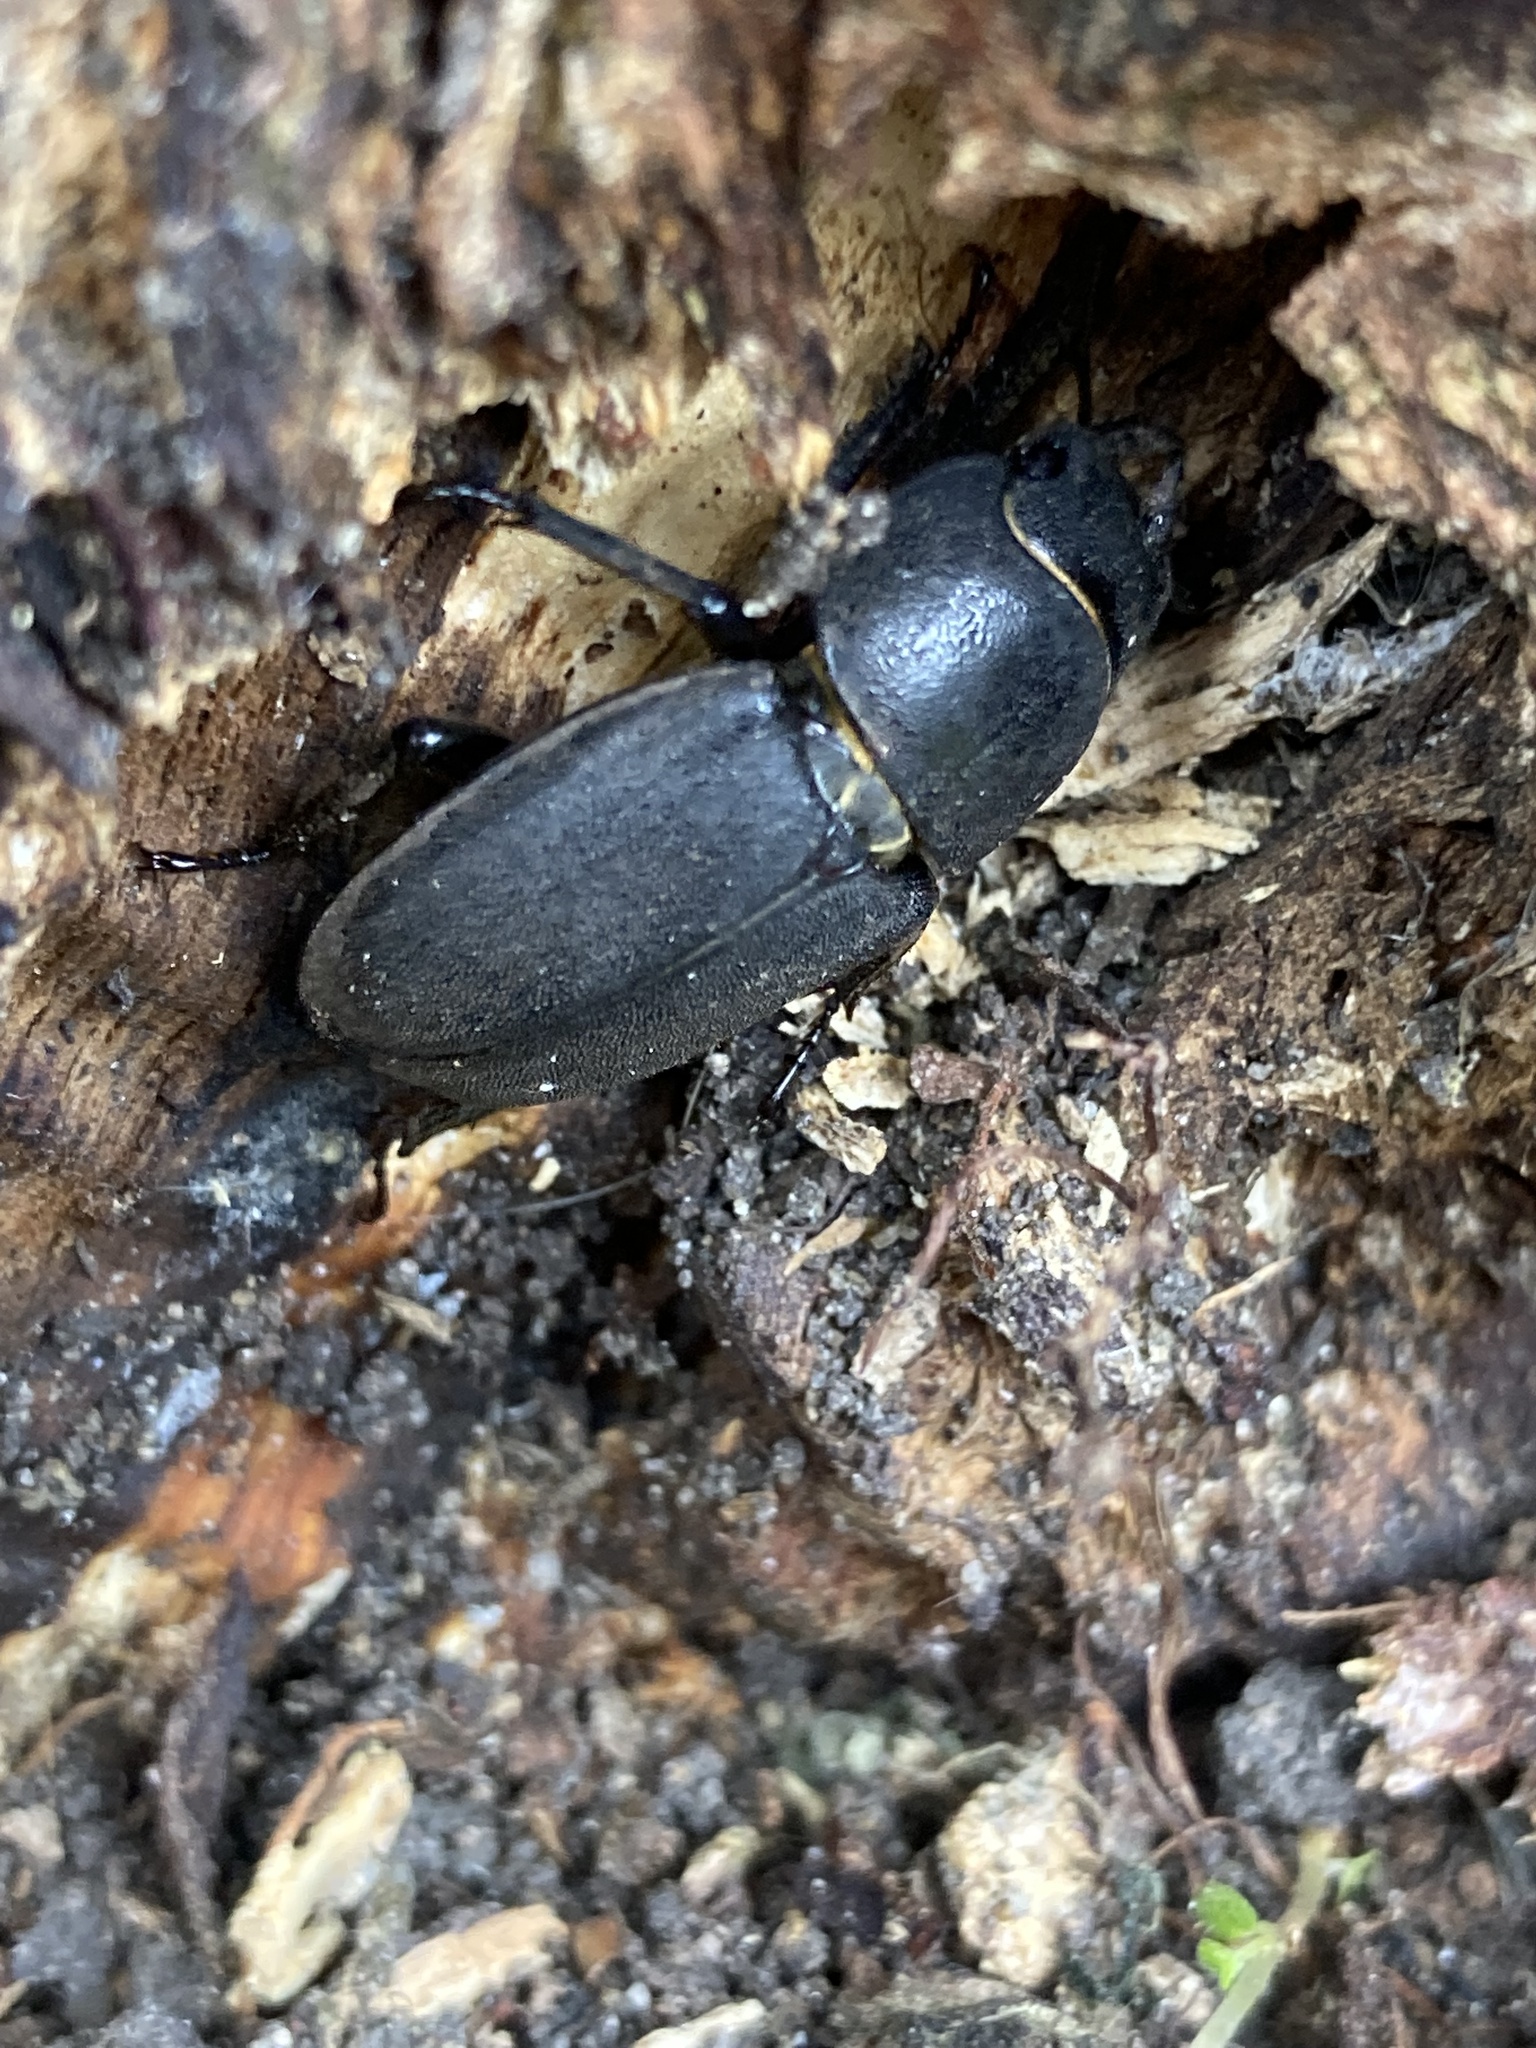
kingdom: Animalia
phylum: Arthropoda
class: Insecta
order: Coleoptera
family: Lucanidae
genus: Dorcus
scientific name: Dorcus parallelipipedus
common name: Lesser stag beetle
